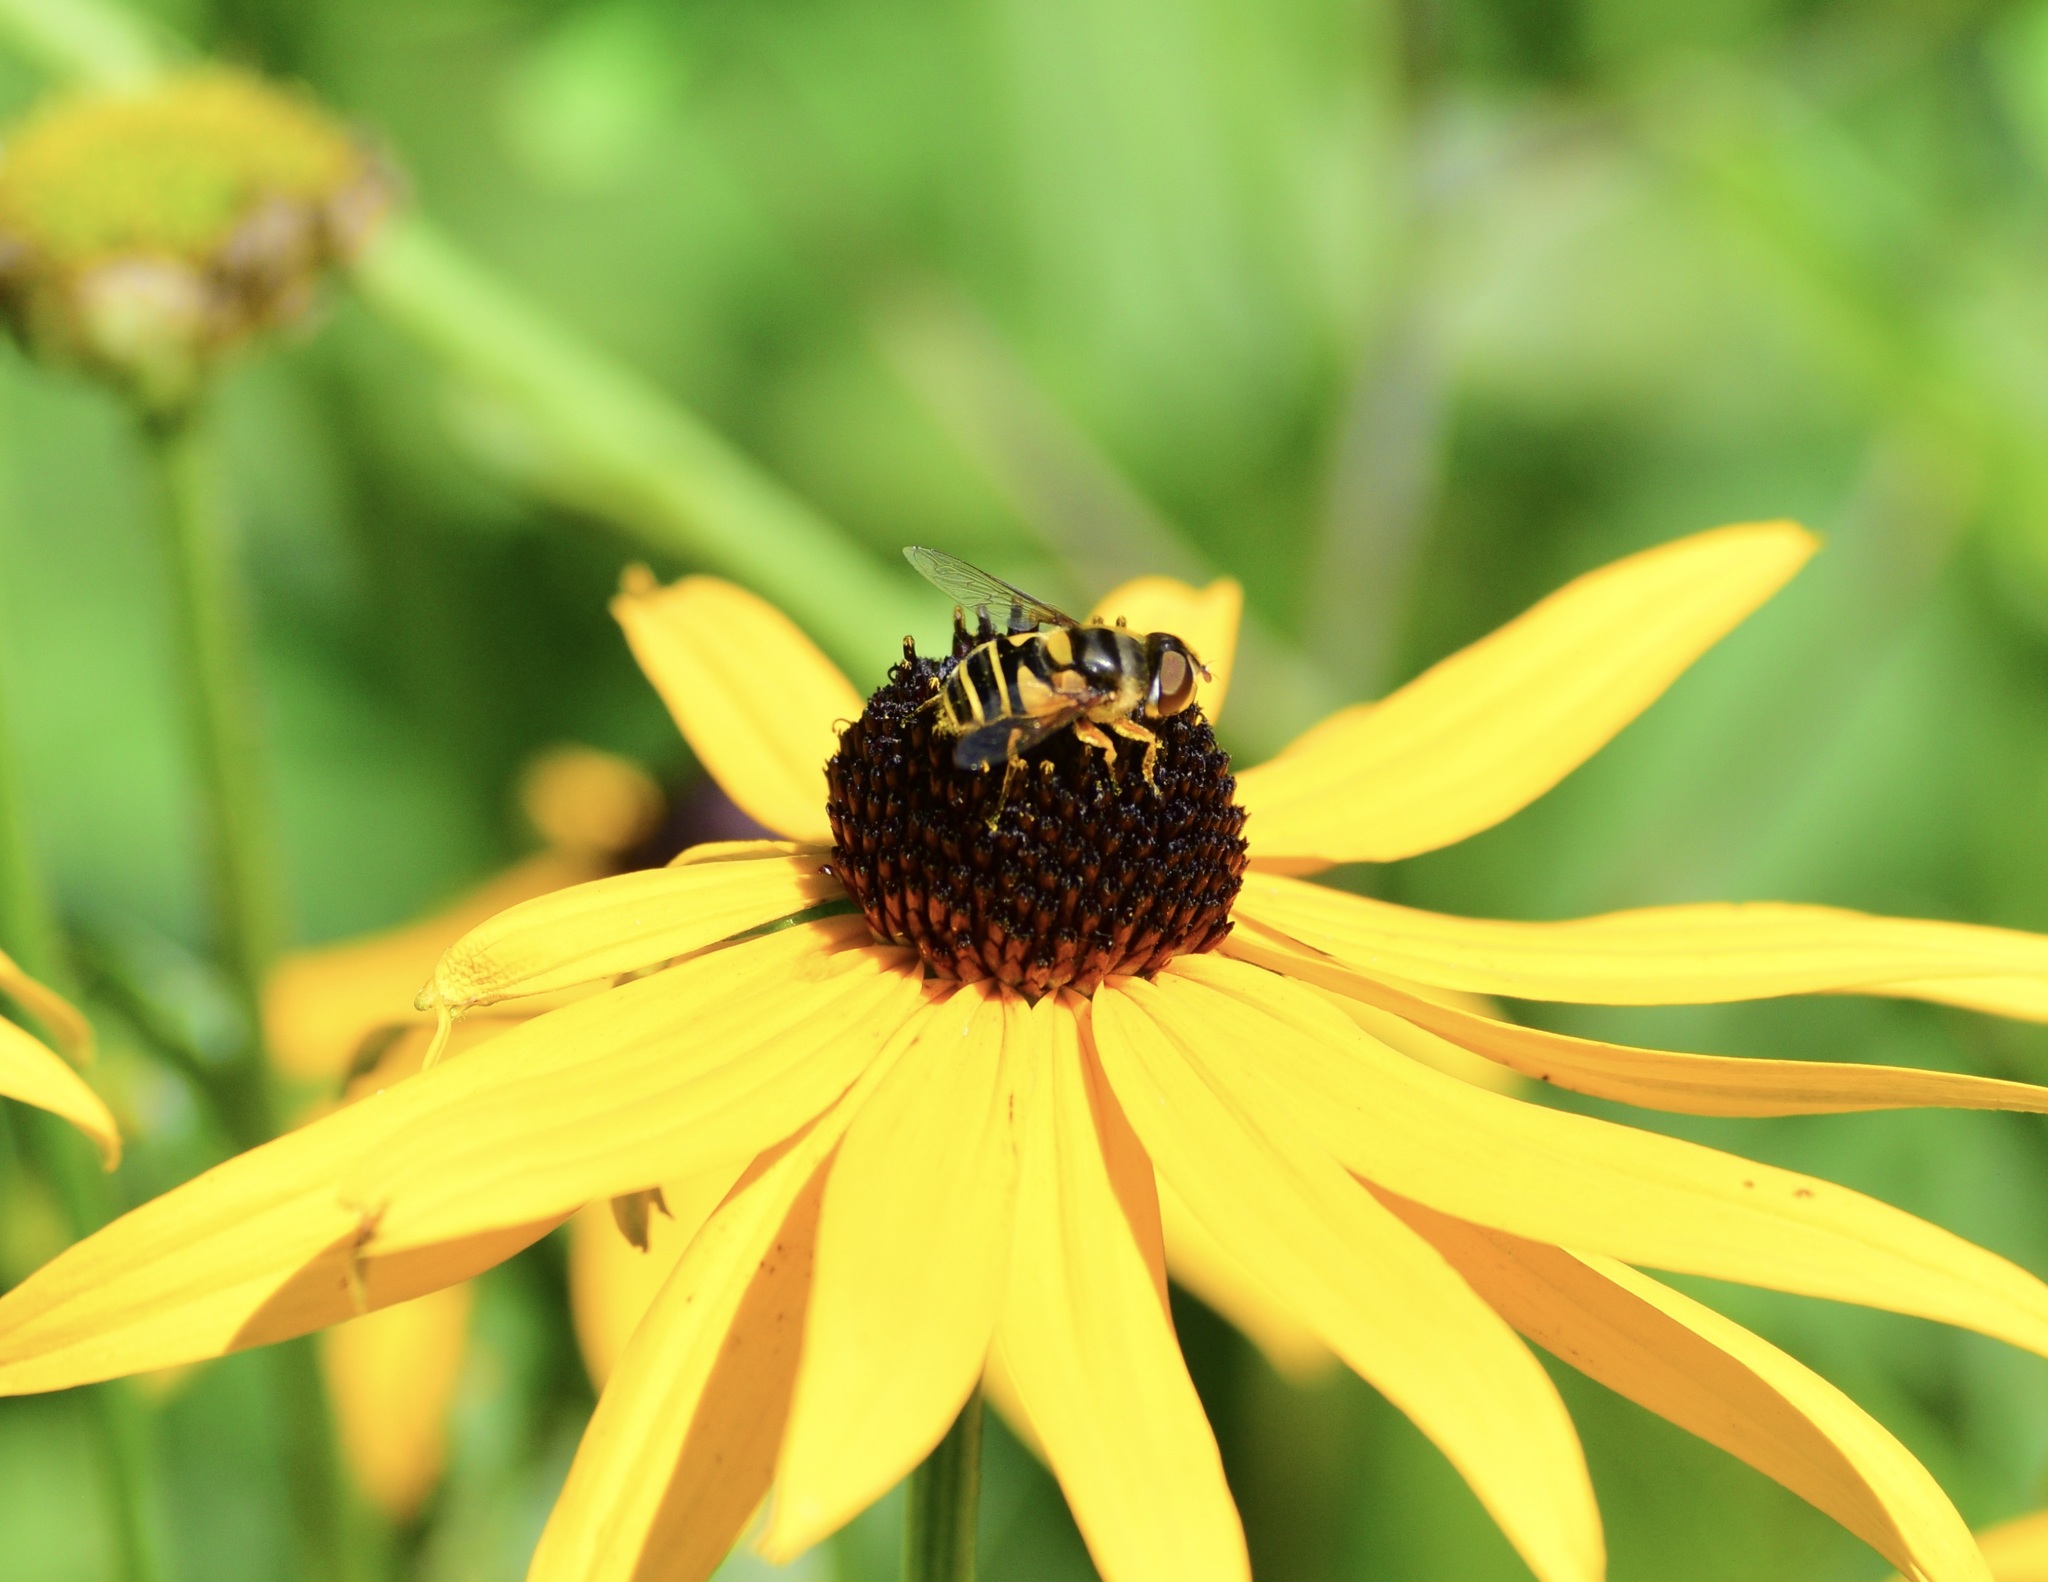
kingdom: Animalia
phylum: Arthropoda
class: Insecta
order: Diptera
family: Syrphidae
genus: Eristalis
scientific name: Eristalis transversa
